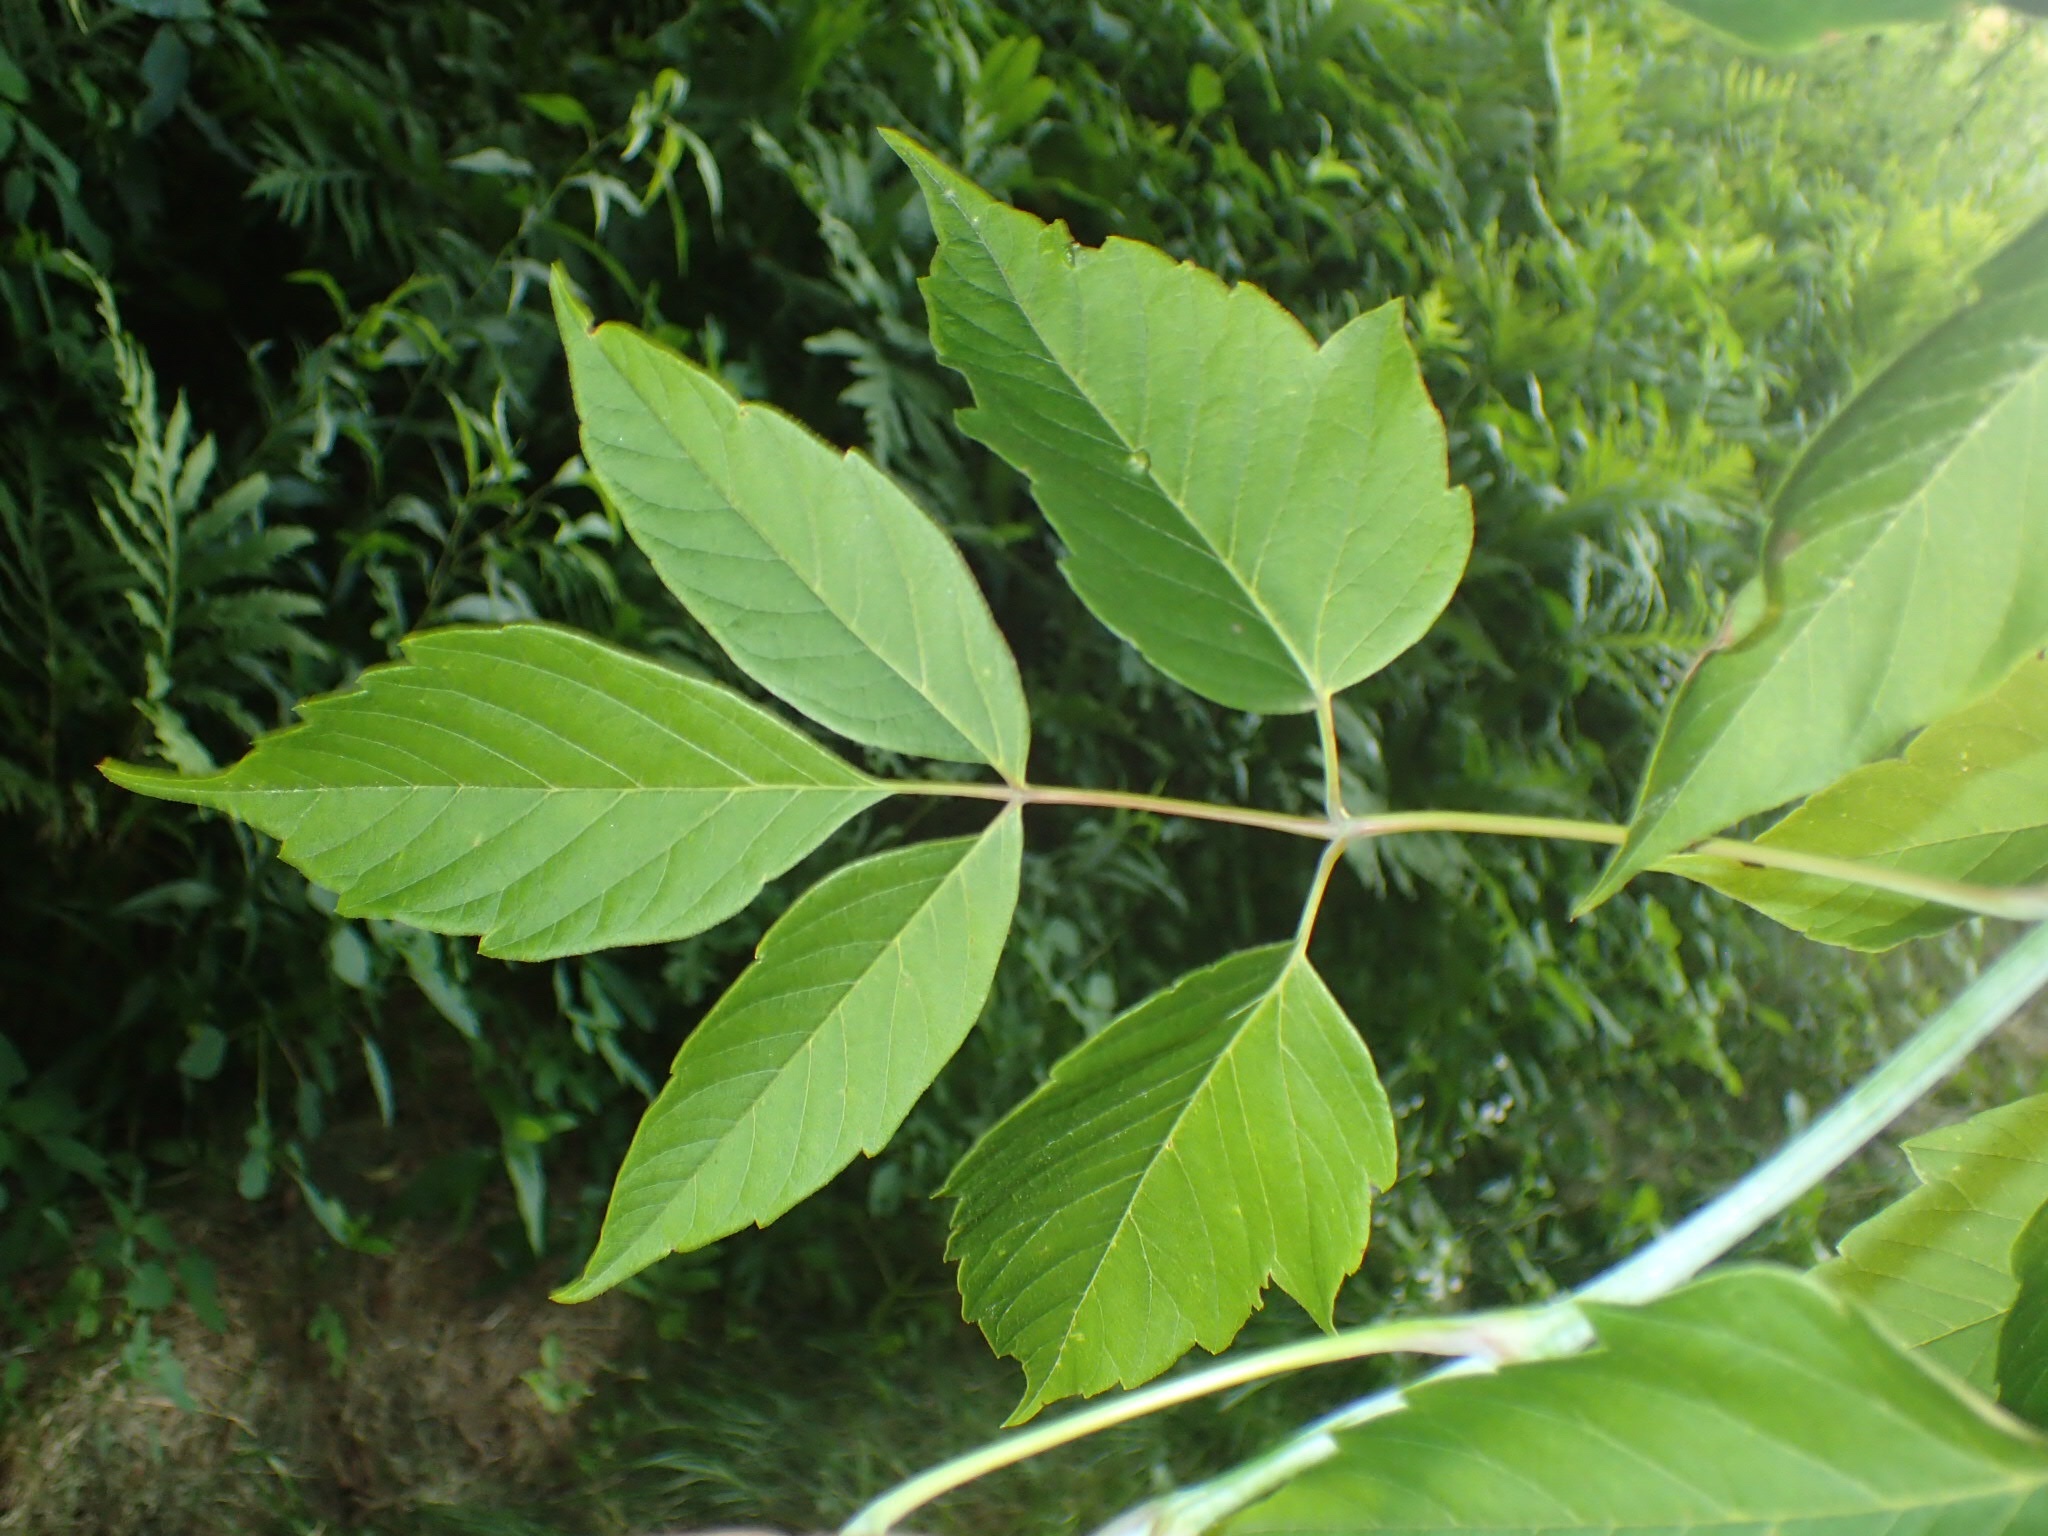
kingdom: Plantae
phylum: Tracheophyta
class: Magnoliopsida
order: Sapindales
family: Sapindaceae
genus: Acer
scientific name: Acer negundo
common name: Ashleaf maple
